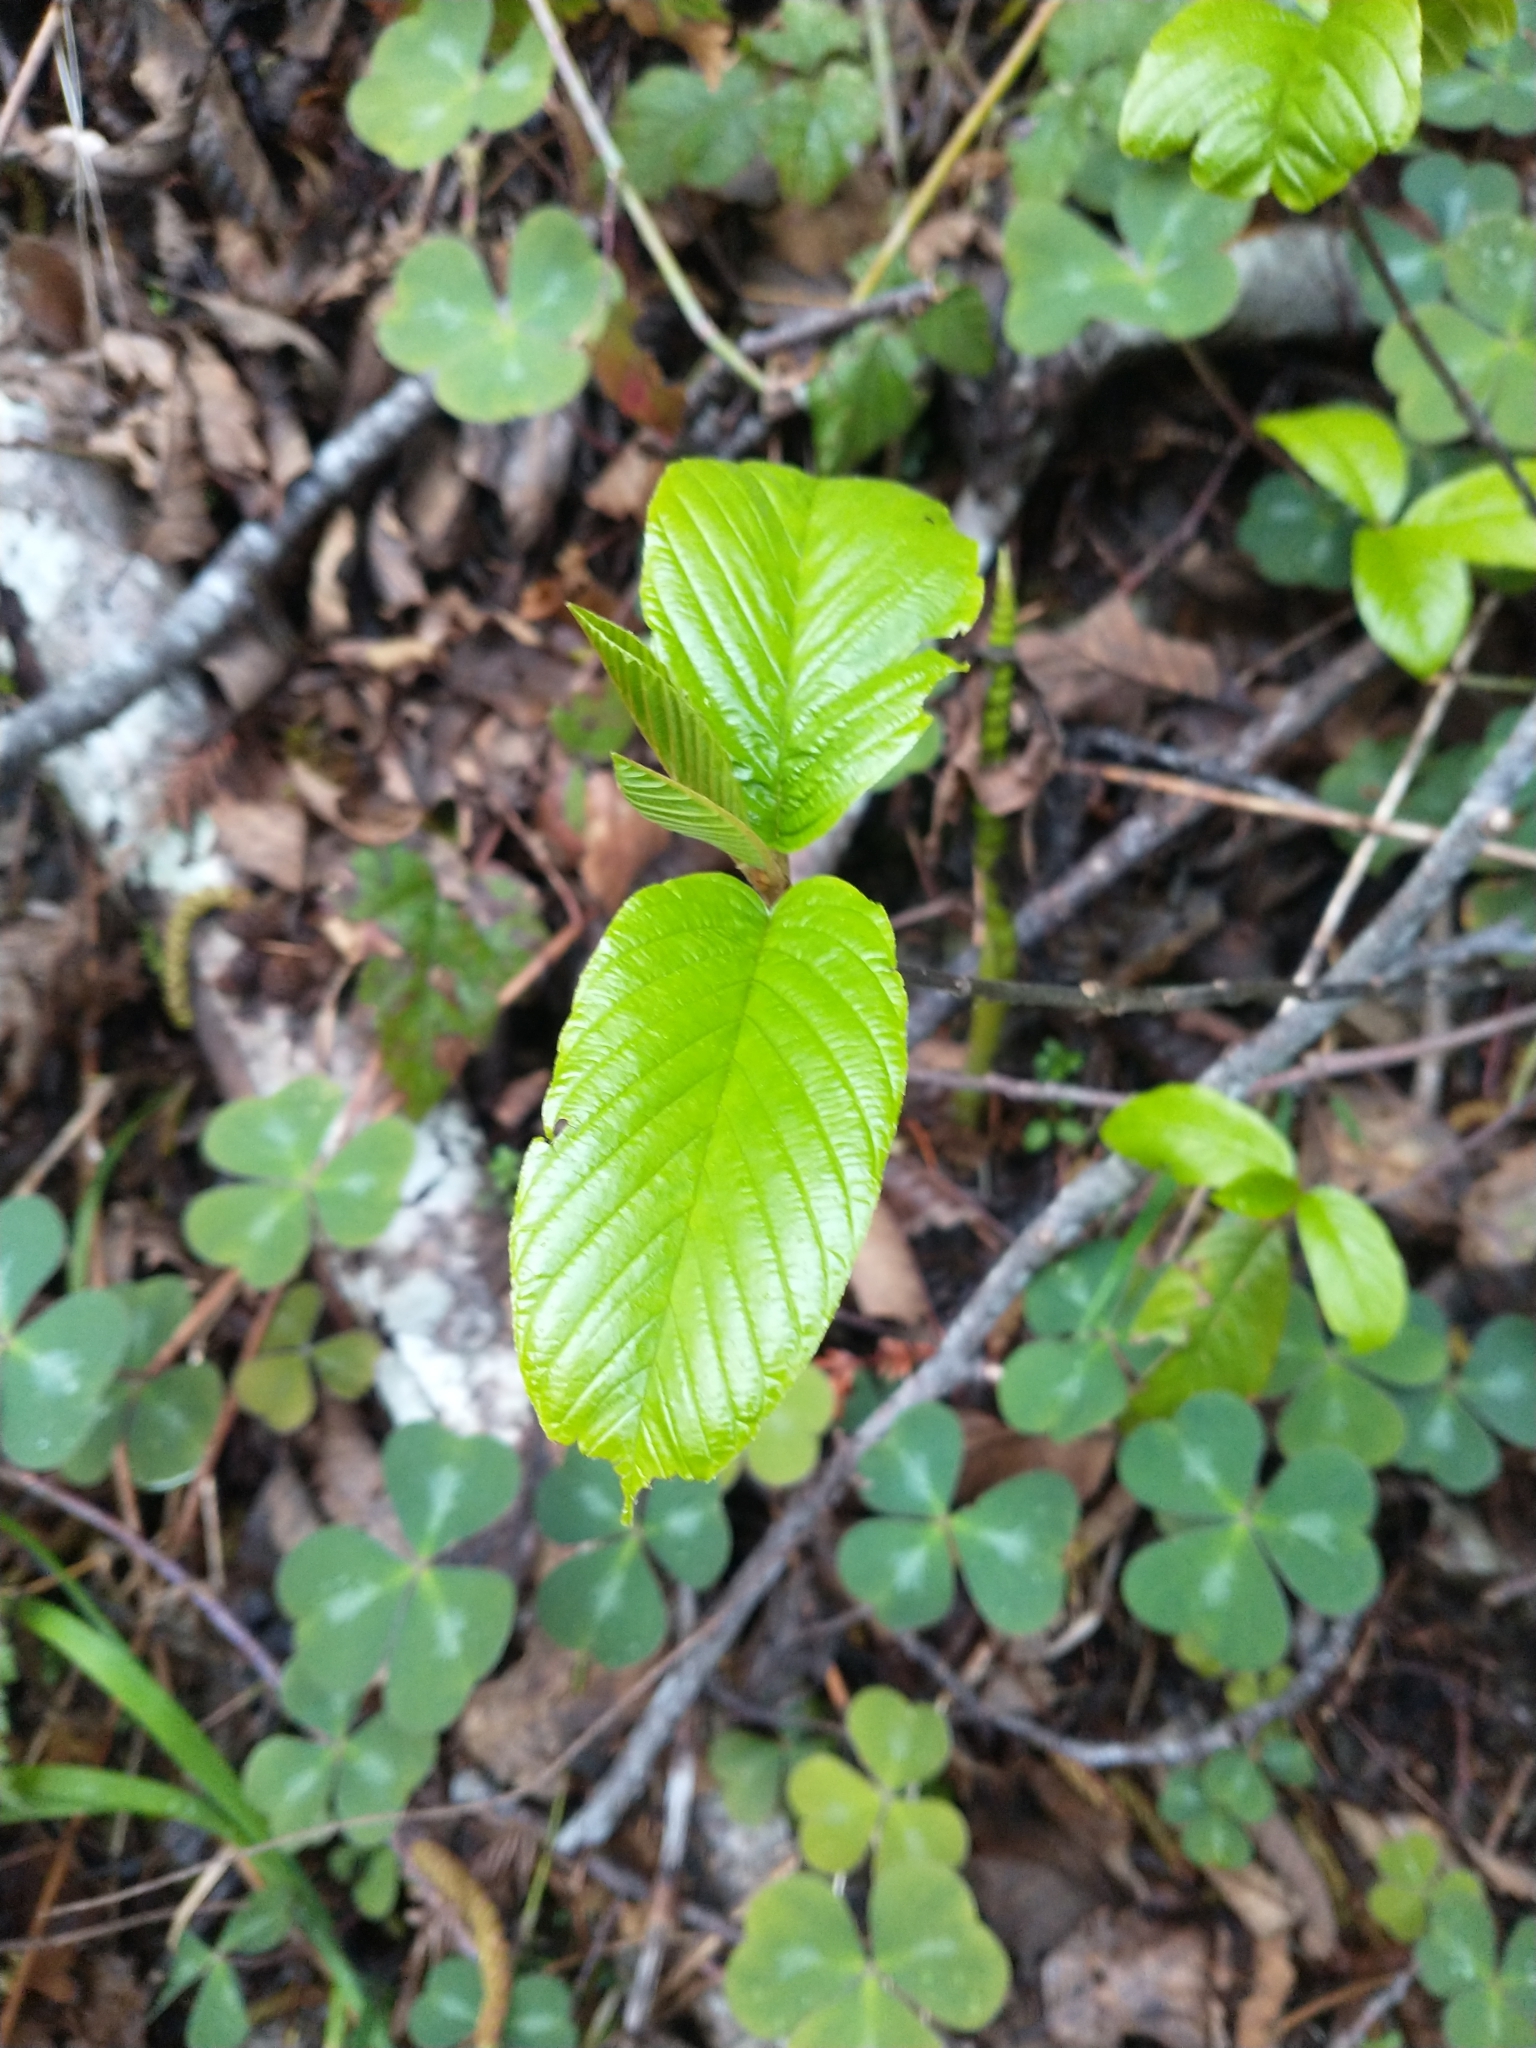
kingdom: Plantae
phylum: Tracheophyta
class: Magnoliopsida
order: Rosales
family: Rhamnaceae
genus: Frangula
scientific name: Frangula purshiana
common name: Cascara buckthorn
